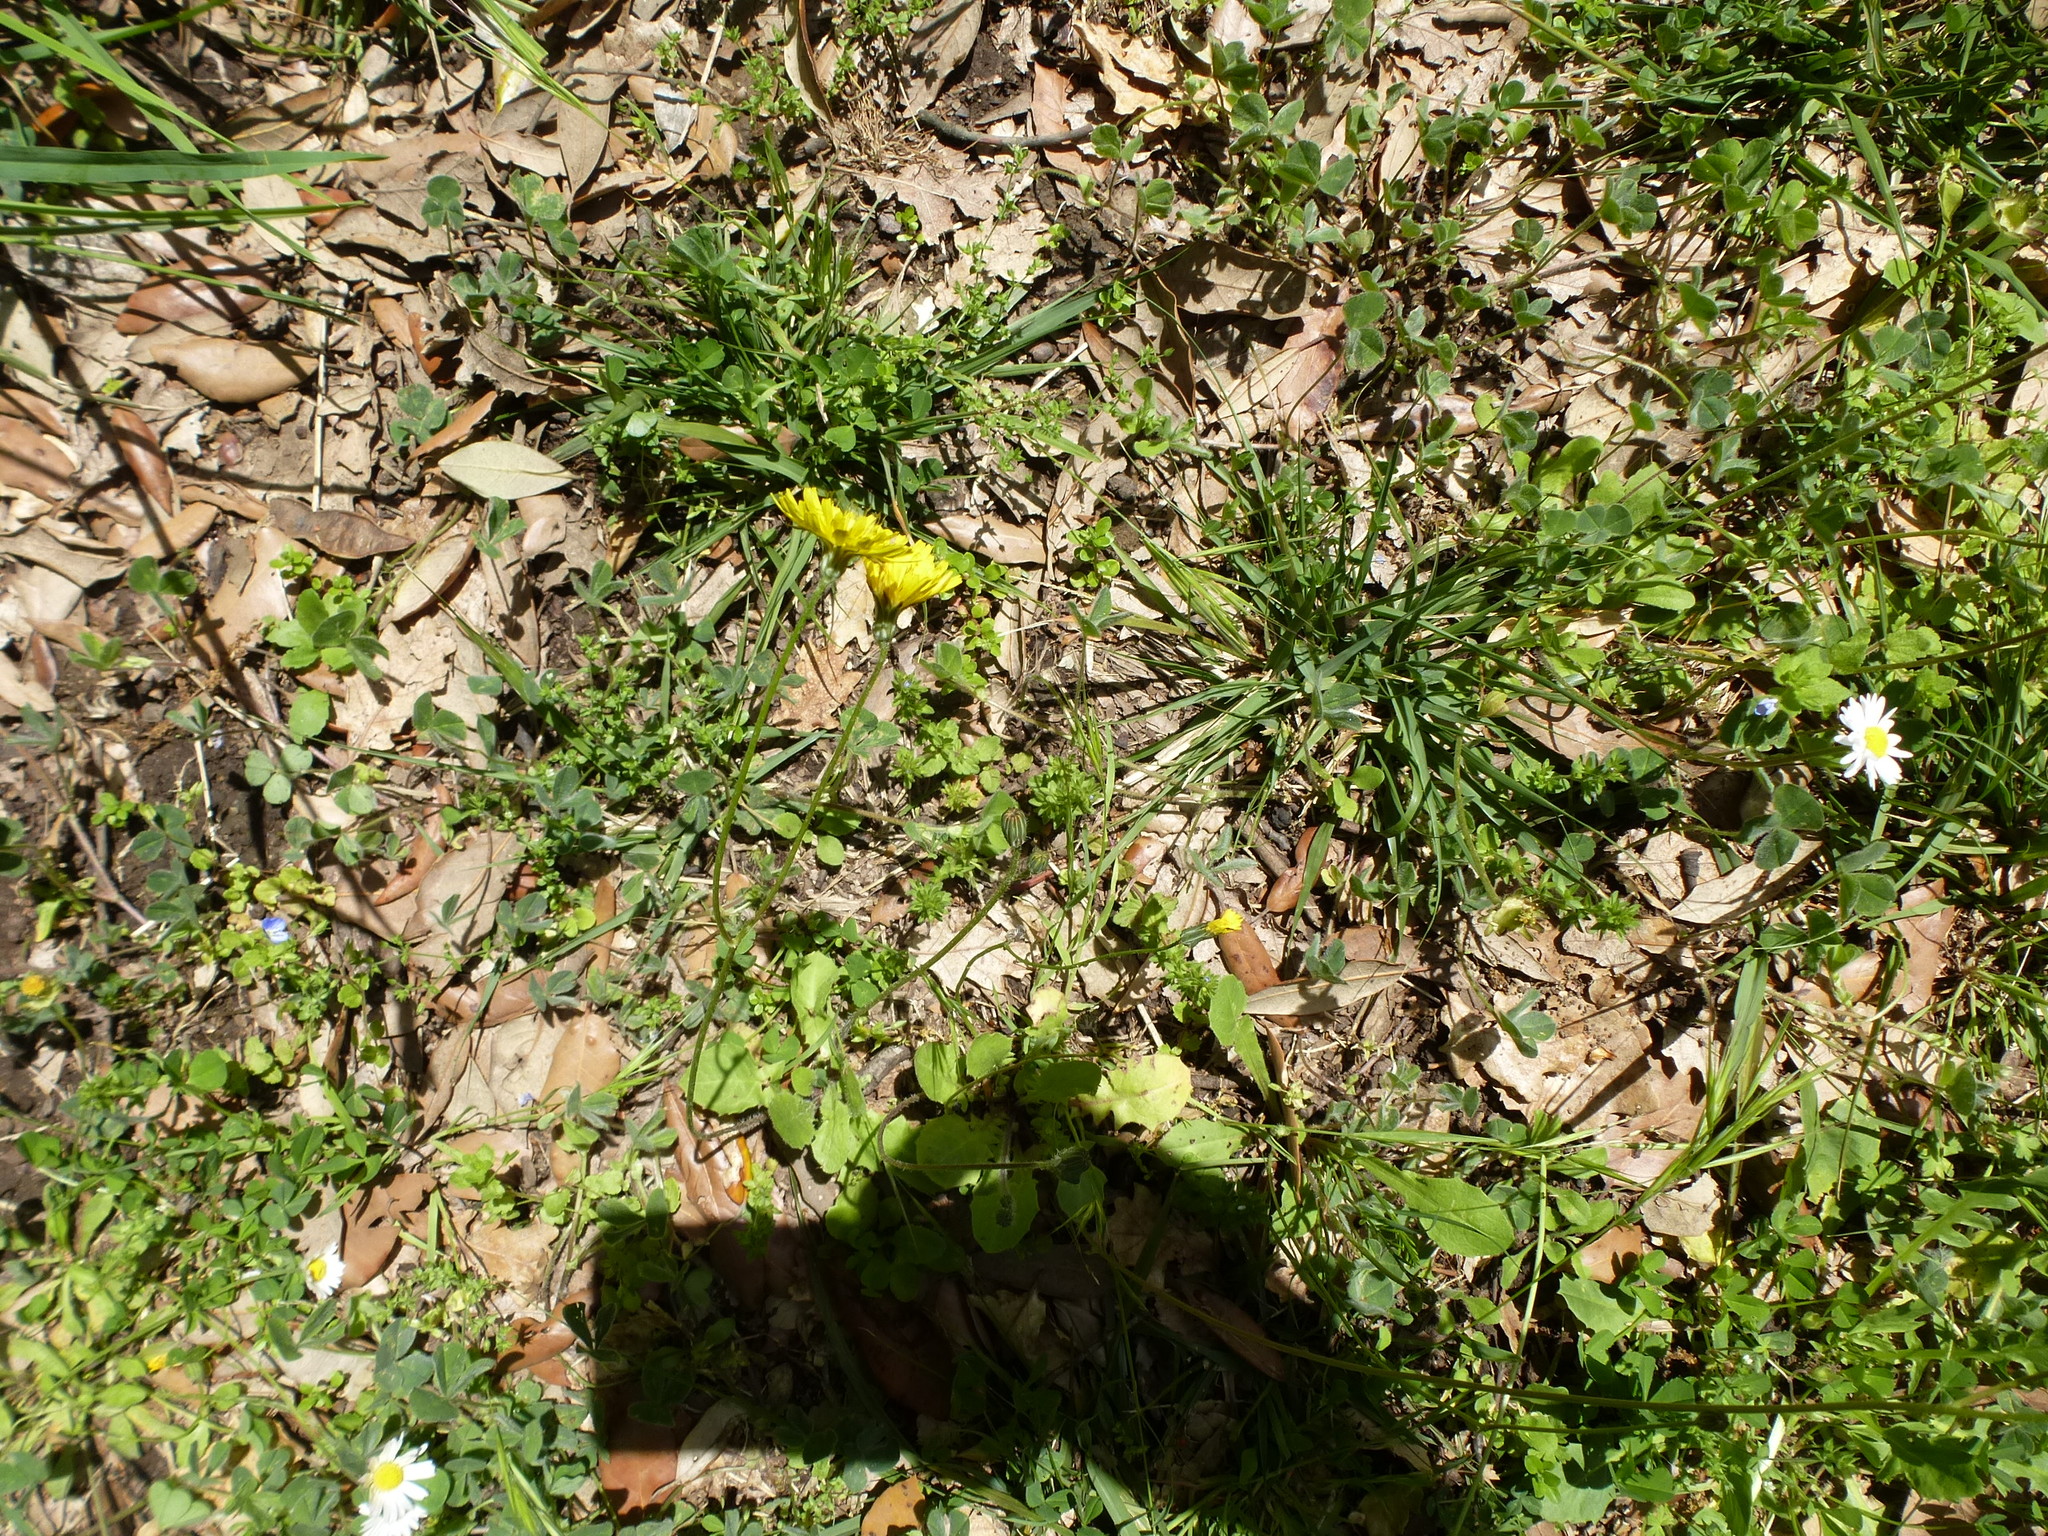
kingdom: Plantae
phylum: Tracheophyta
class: Magnoliopsida
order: Asterales
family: Asteraceae
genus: Bellis
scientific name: Bellis perennis
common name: Lawndaisy
